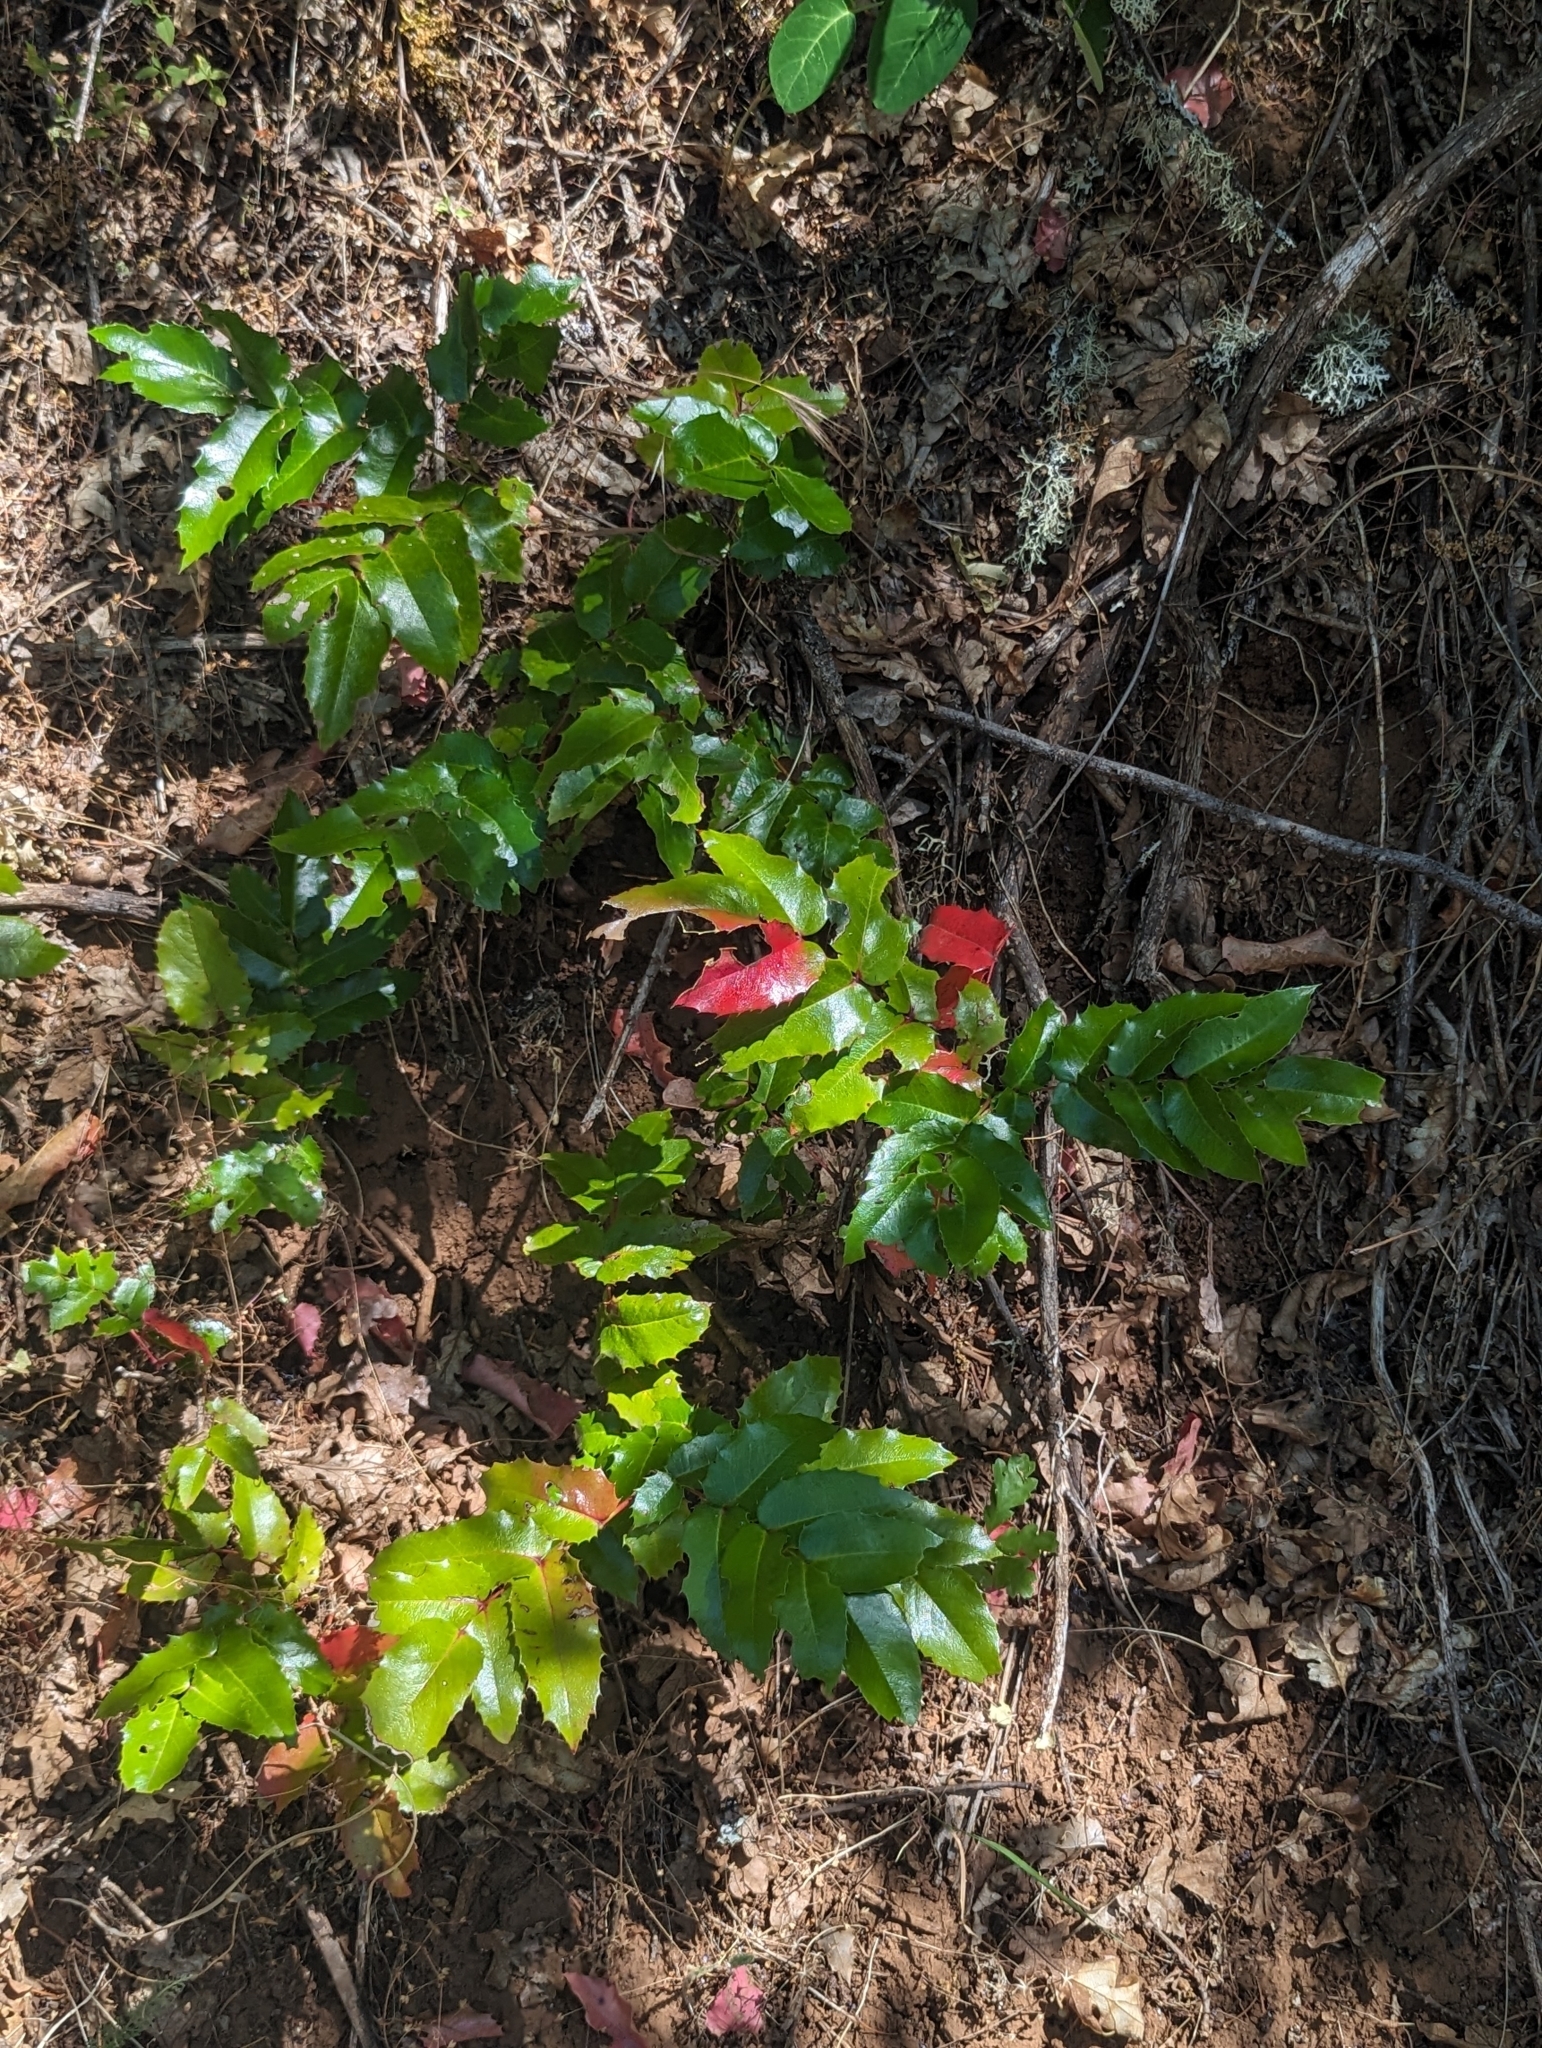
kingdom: Plantae
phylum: Tracheophyta
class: Magnoliopsida
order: Ranunculales
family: Berberidaceae
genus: Mahonia
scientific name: Mahonia aquifolium
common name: Oregon-grape
